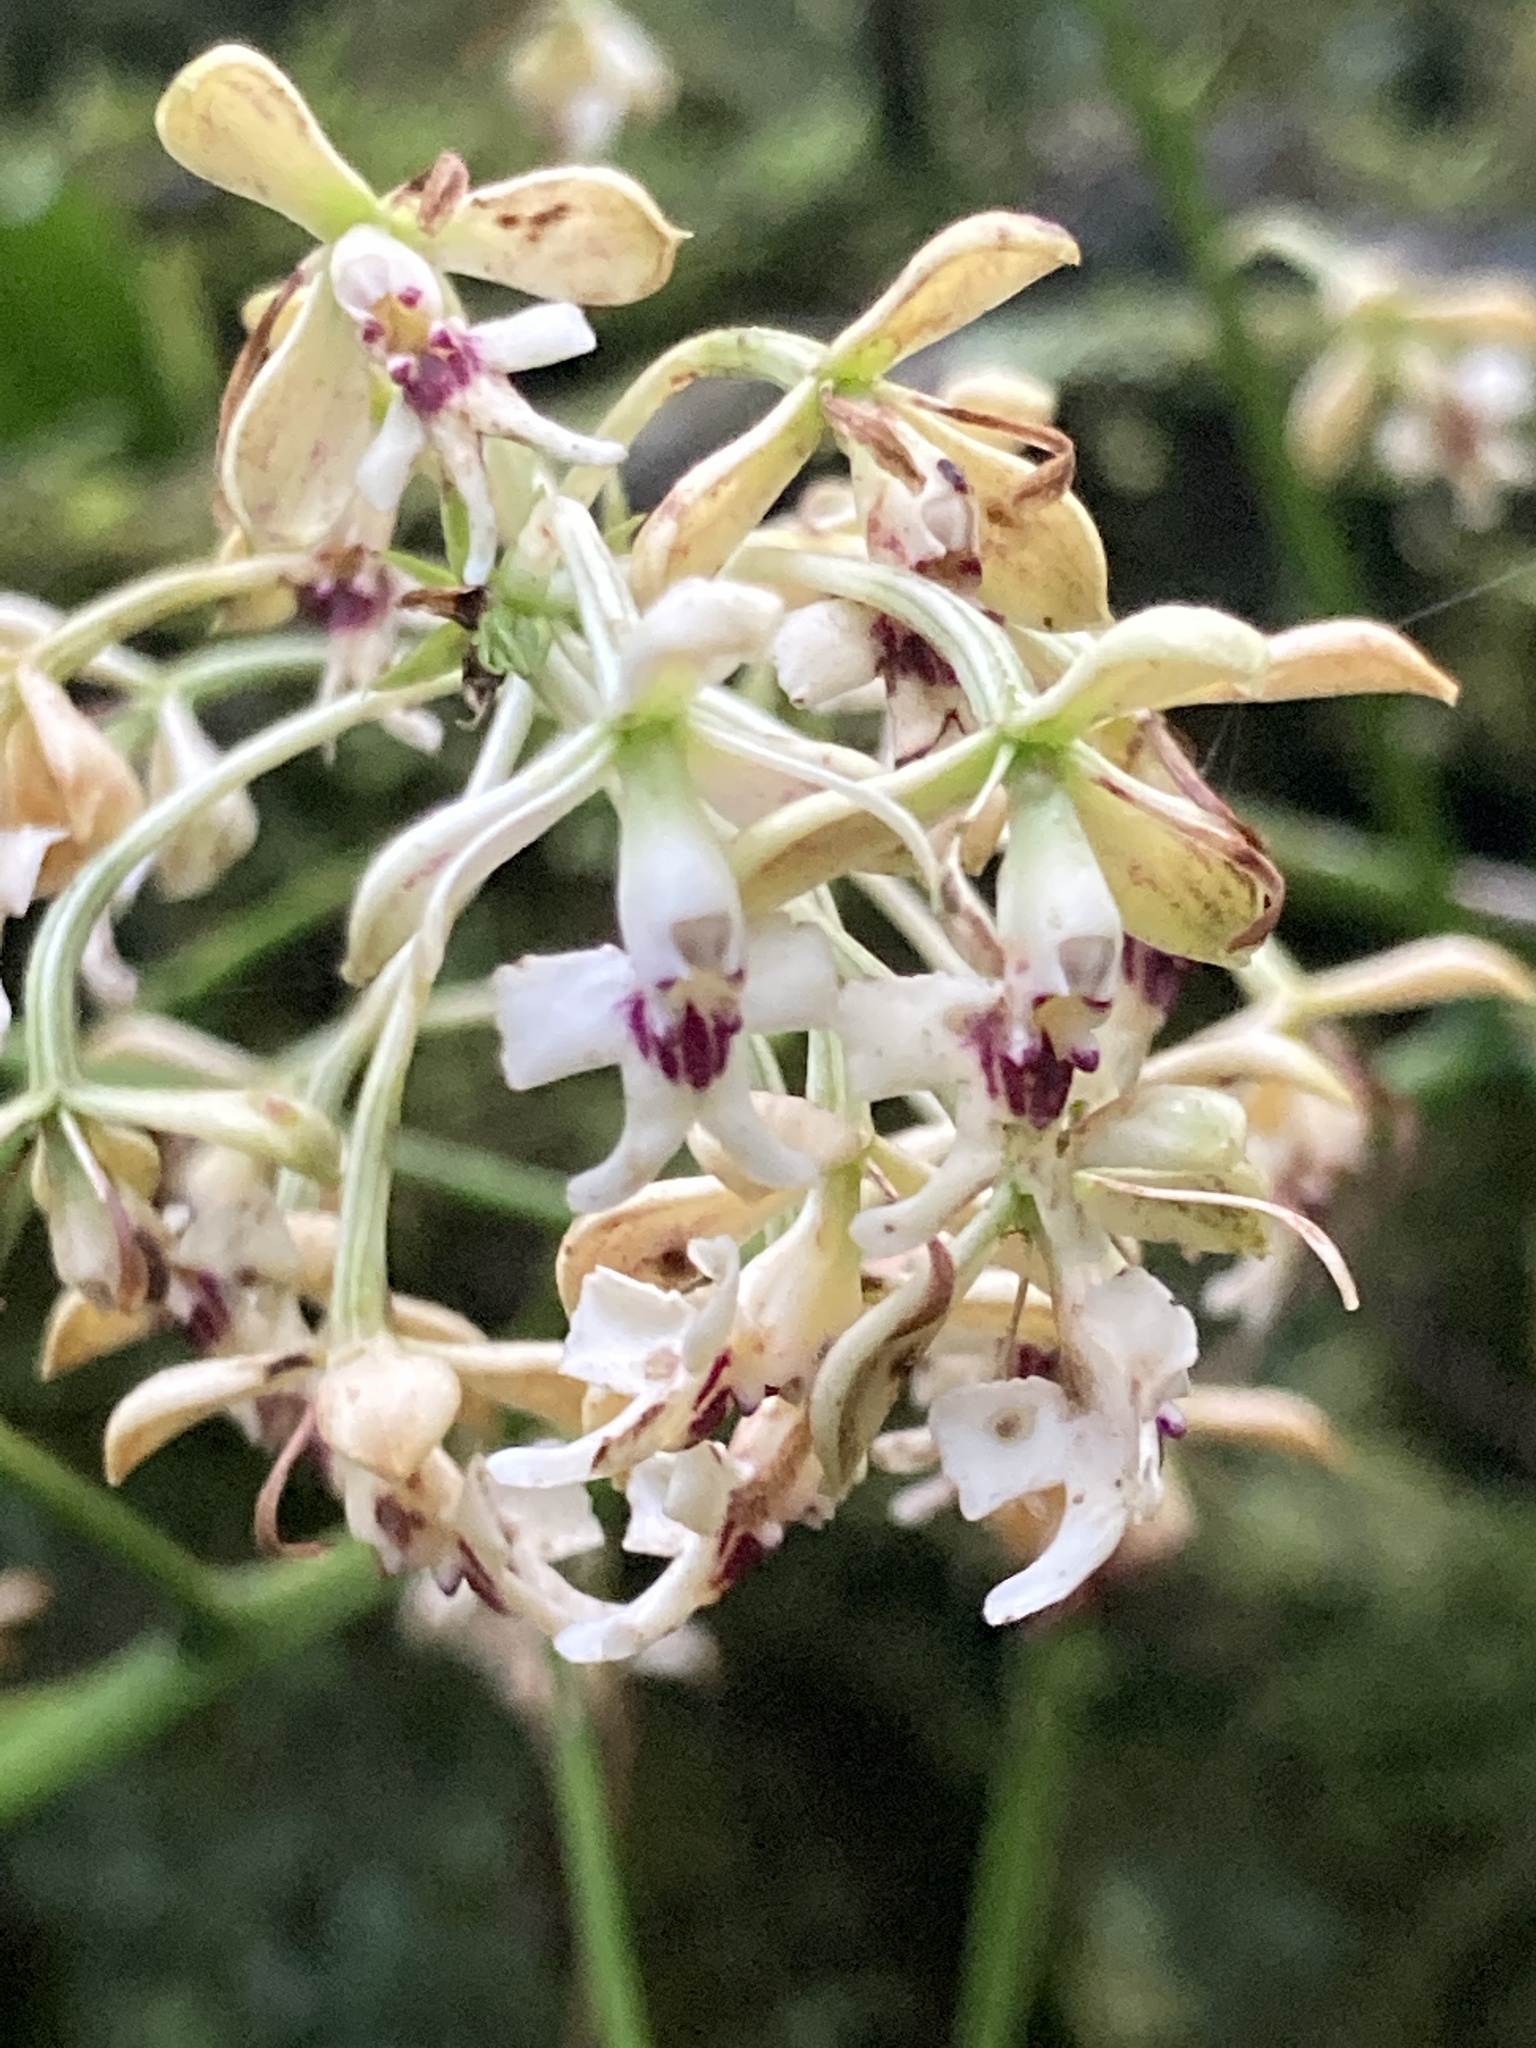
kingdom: Plantae
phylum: Tracheophyta
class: Liliopsida
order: Asparagales
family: Orchidaceae
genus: Epidendrum
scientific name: Epidendrum falsiloquum
